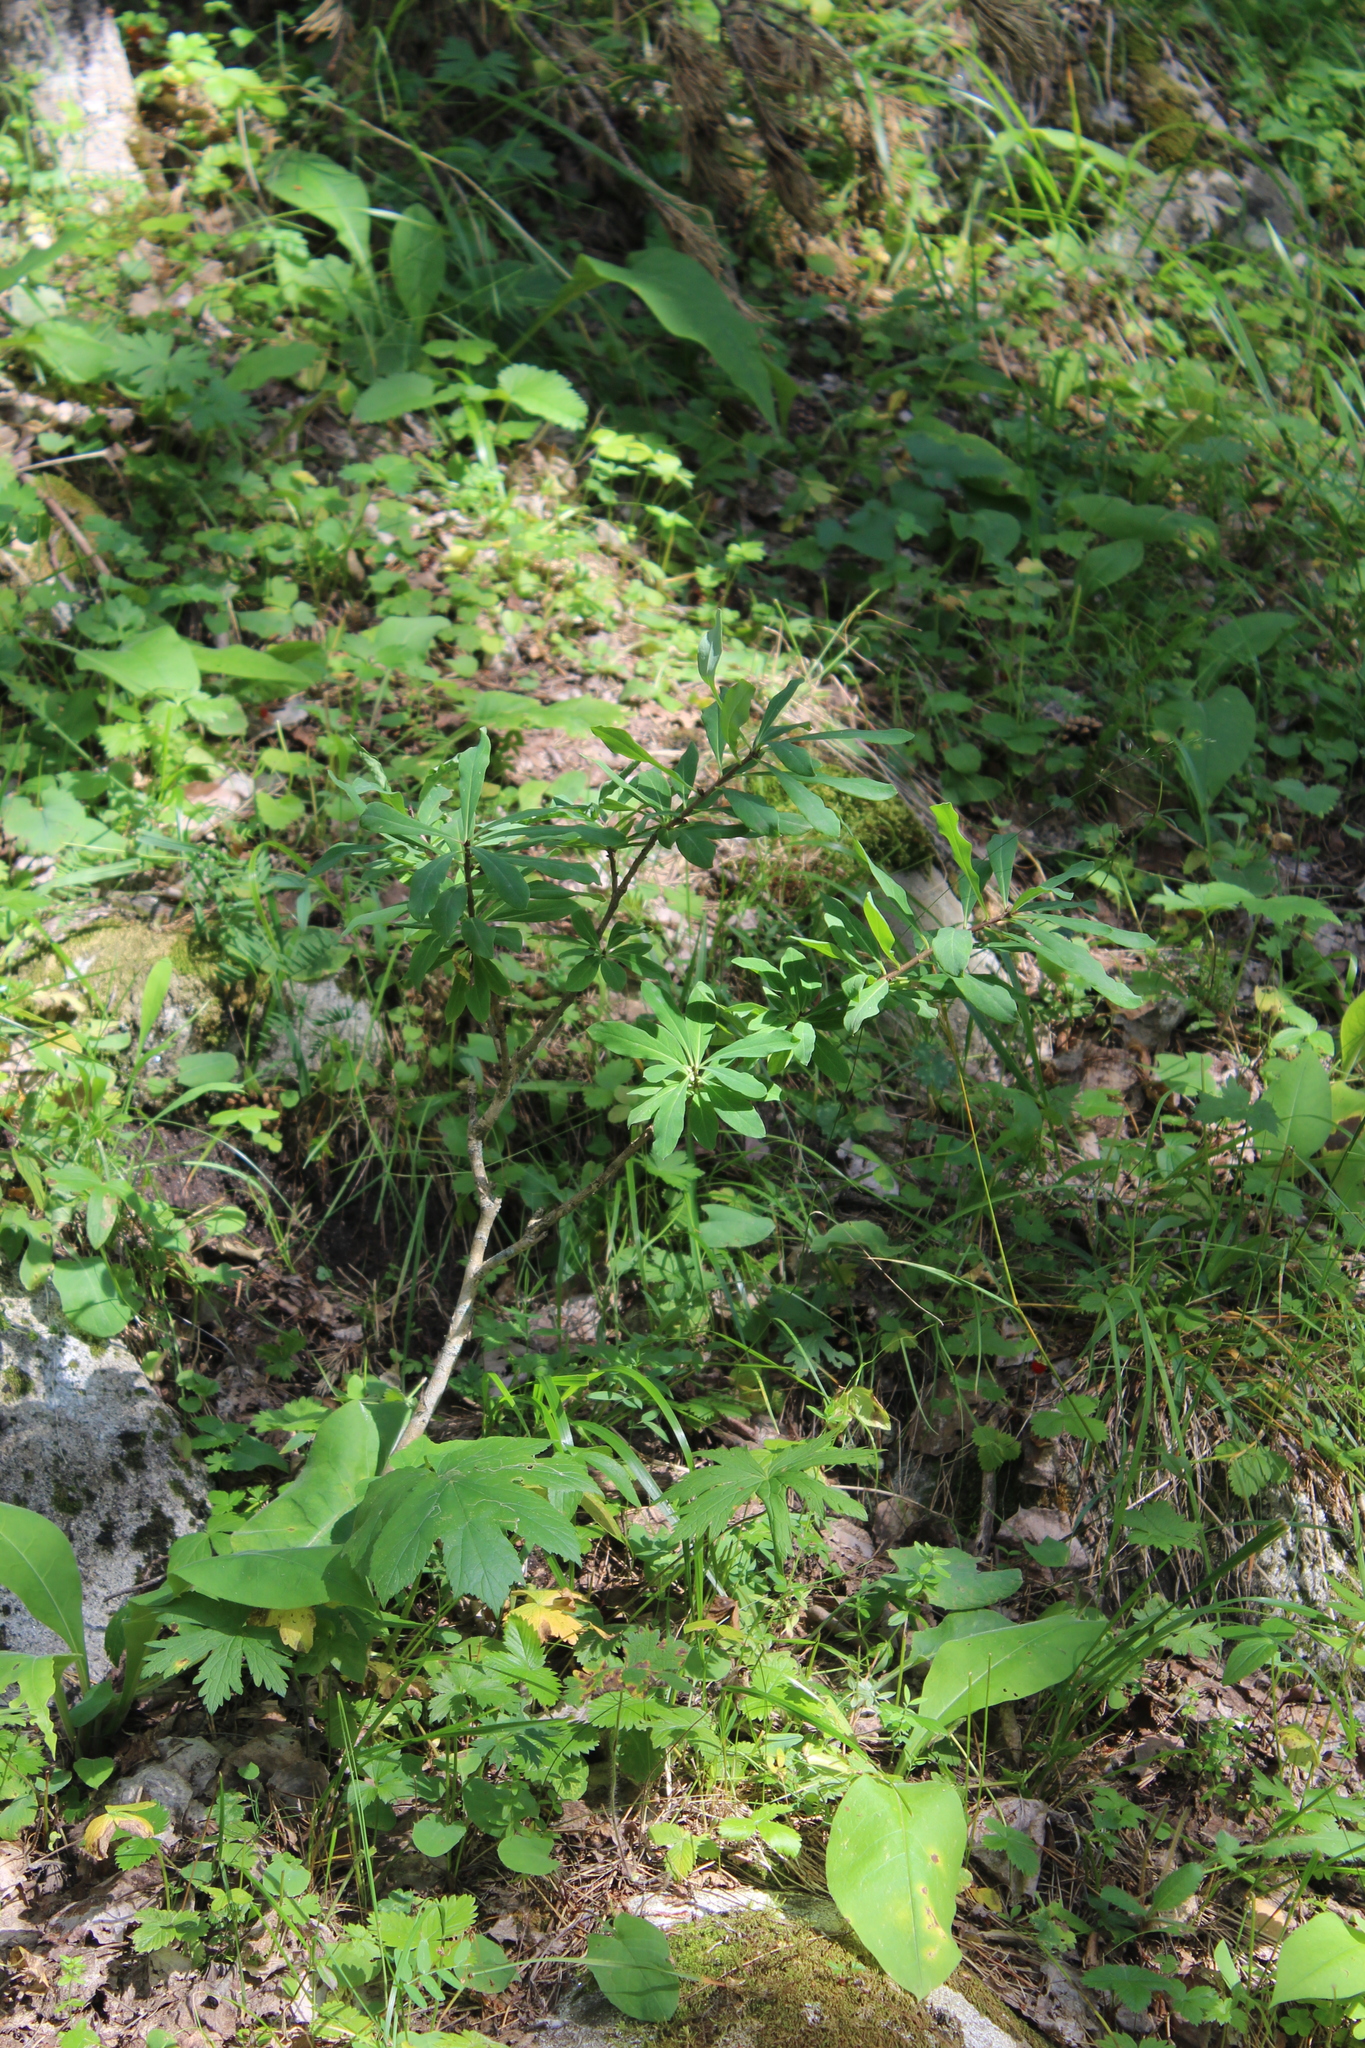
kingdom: Plantae
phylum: Tracheophyta
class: Magnoliopsida
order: Malvales
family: Thymelaeaceae
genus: Daphne
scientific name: Daphne mezereum
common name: Mezereon
